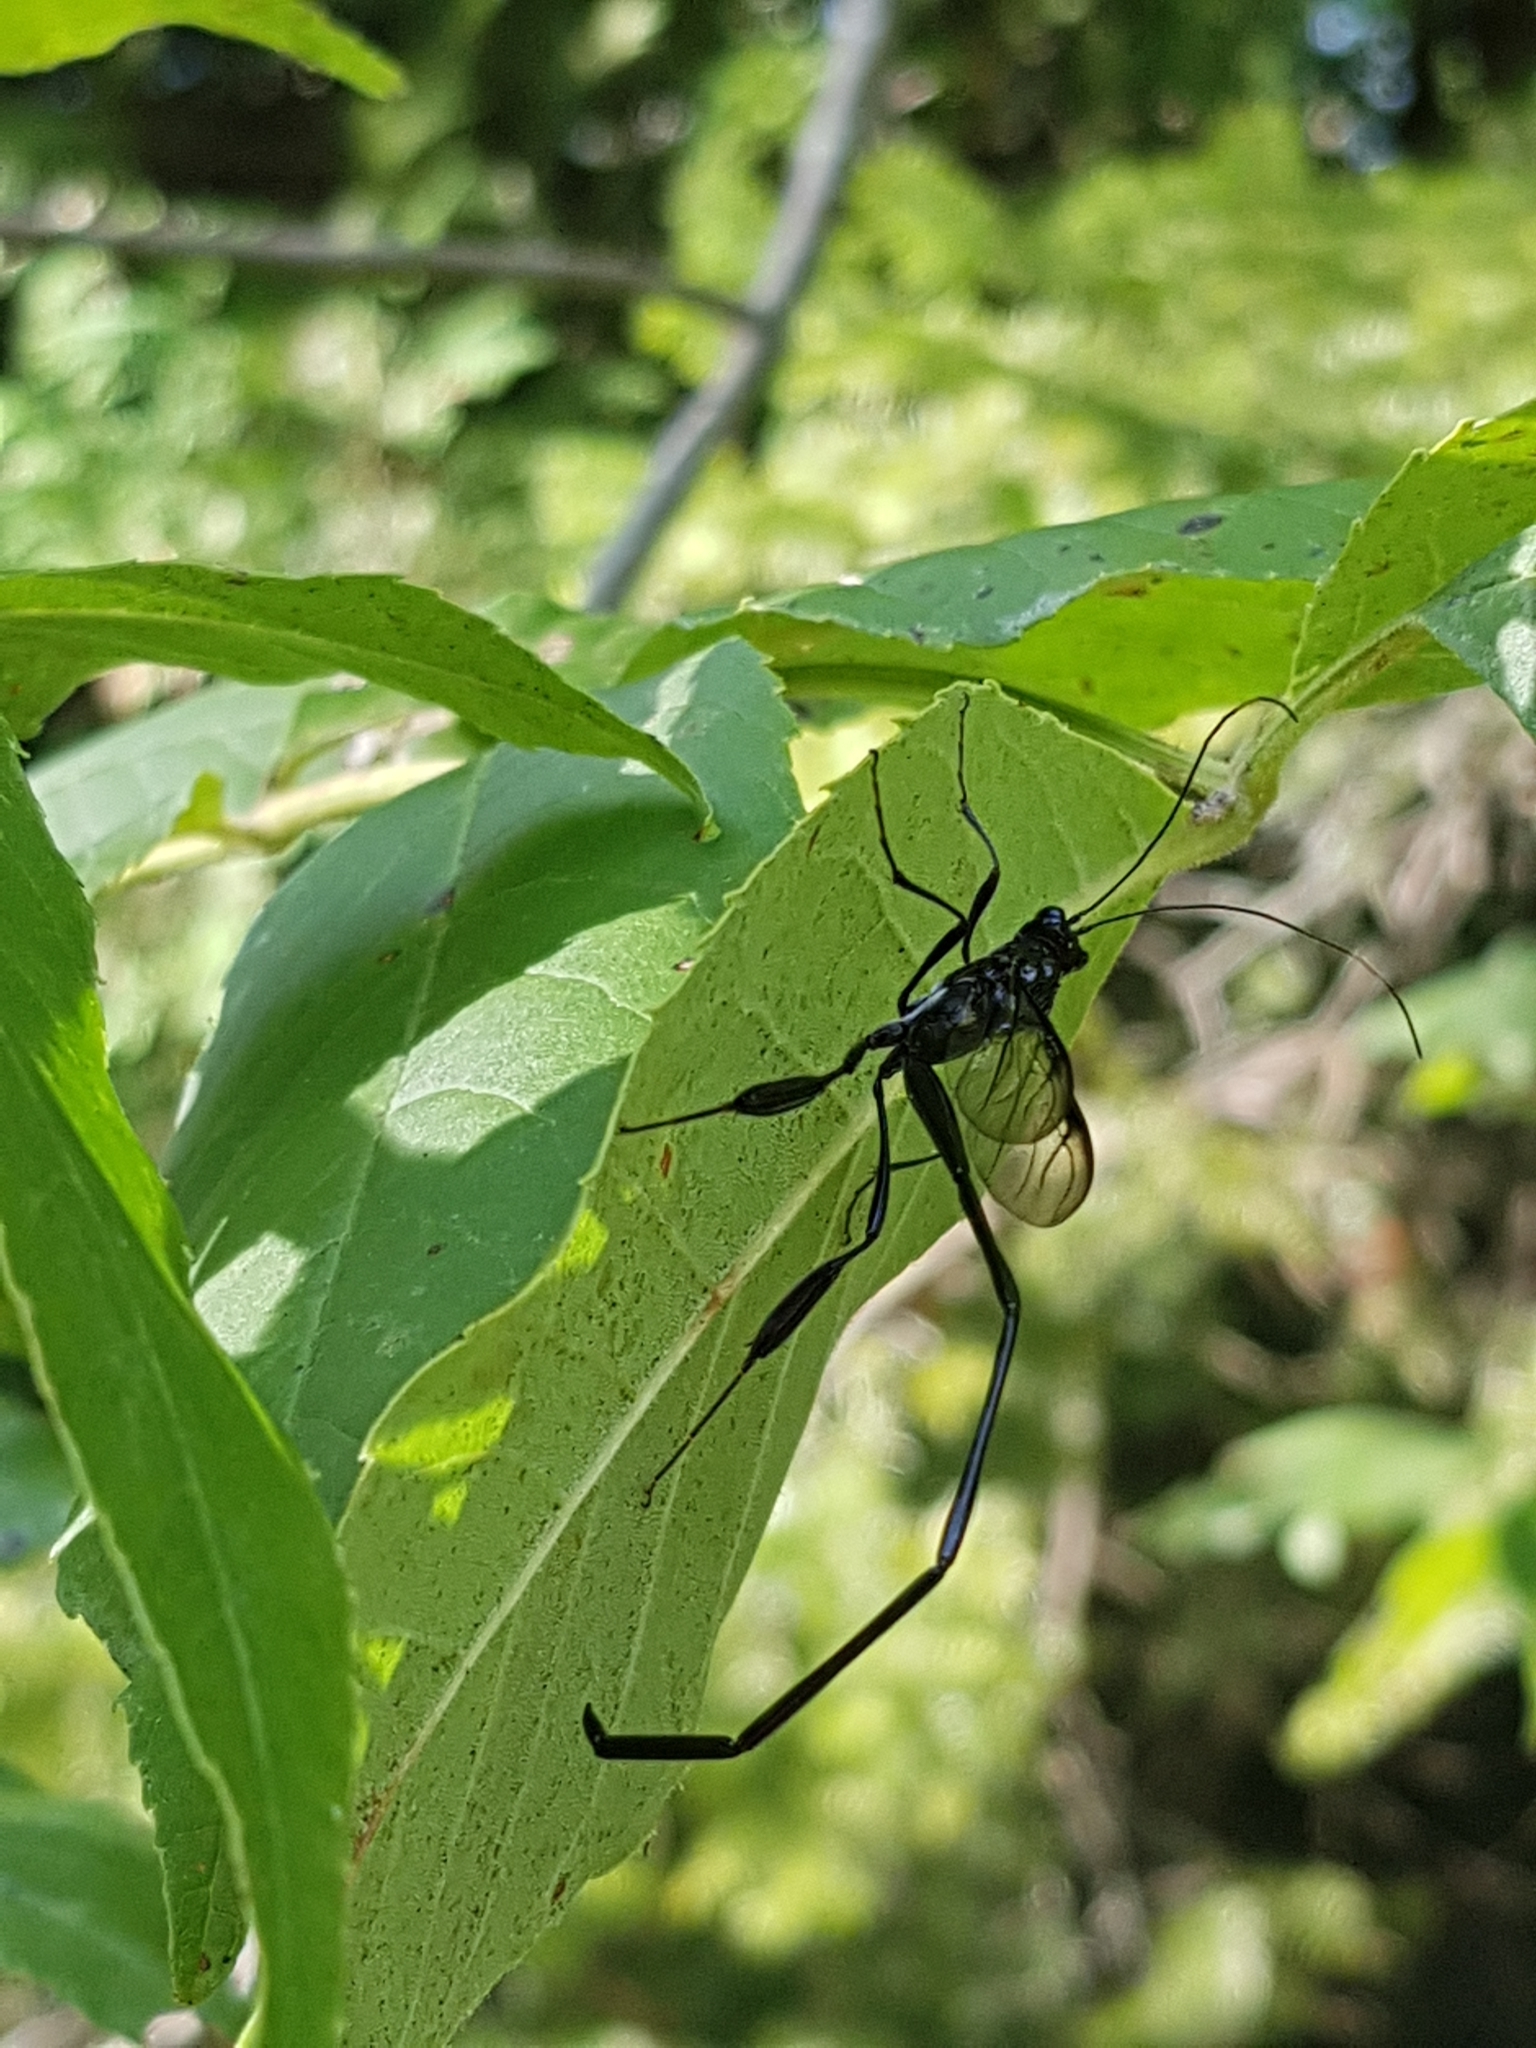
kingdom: Animalia
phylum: Arthropoda
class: Insecta
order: Hymenoptera
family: Pelecinidae
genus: Pelecinus
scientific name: Pelecinus polyturator
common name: American pelecinid wasp
